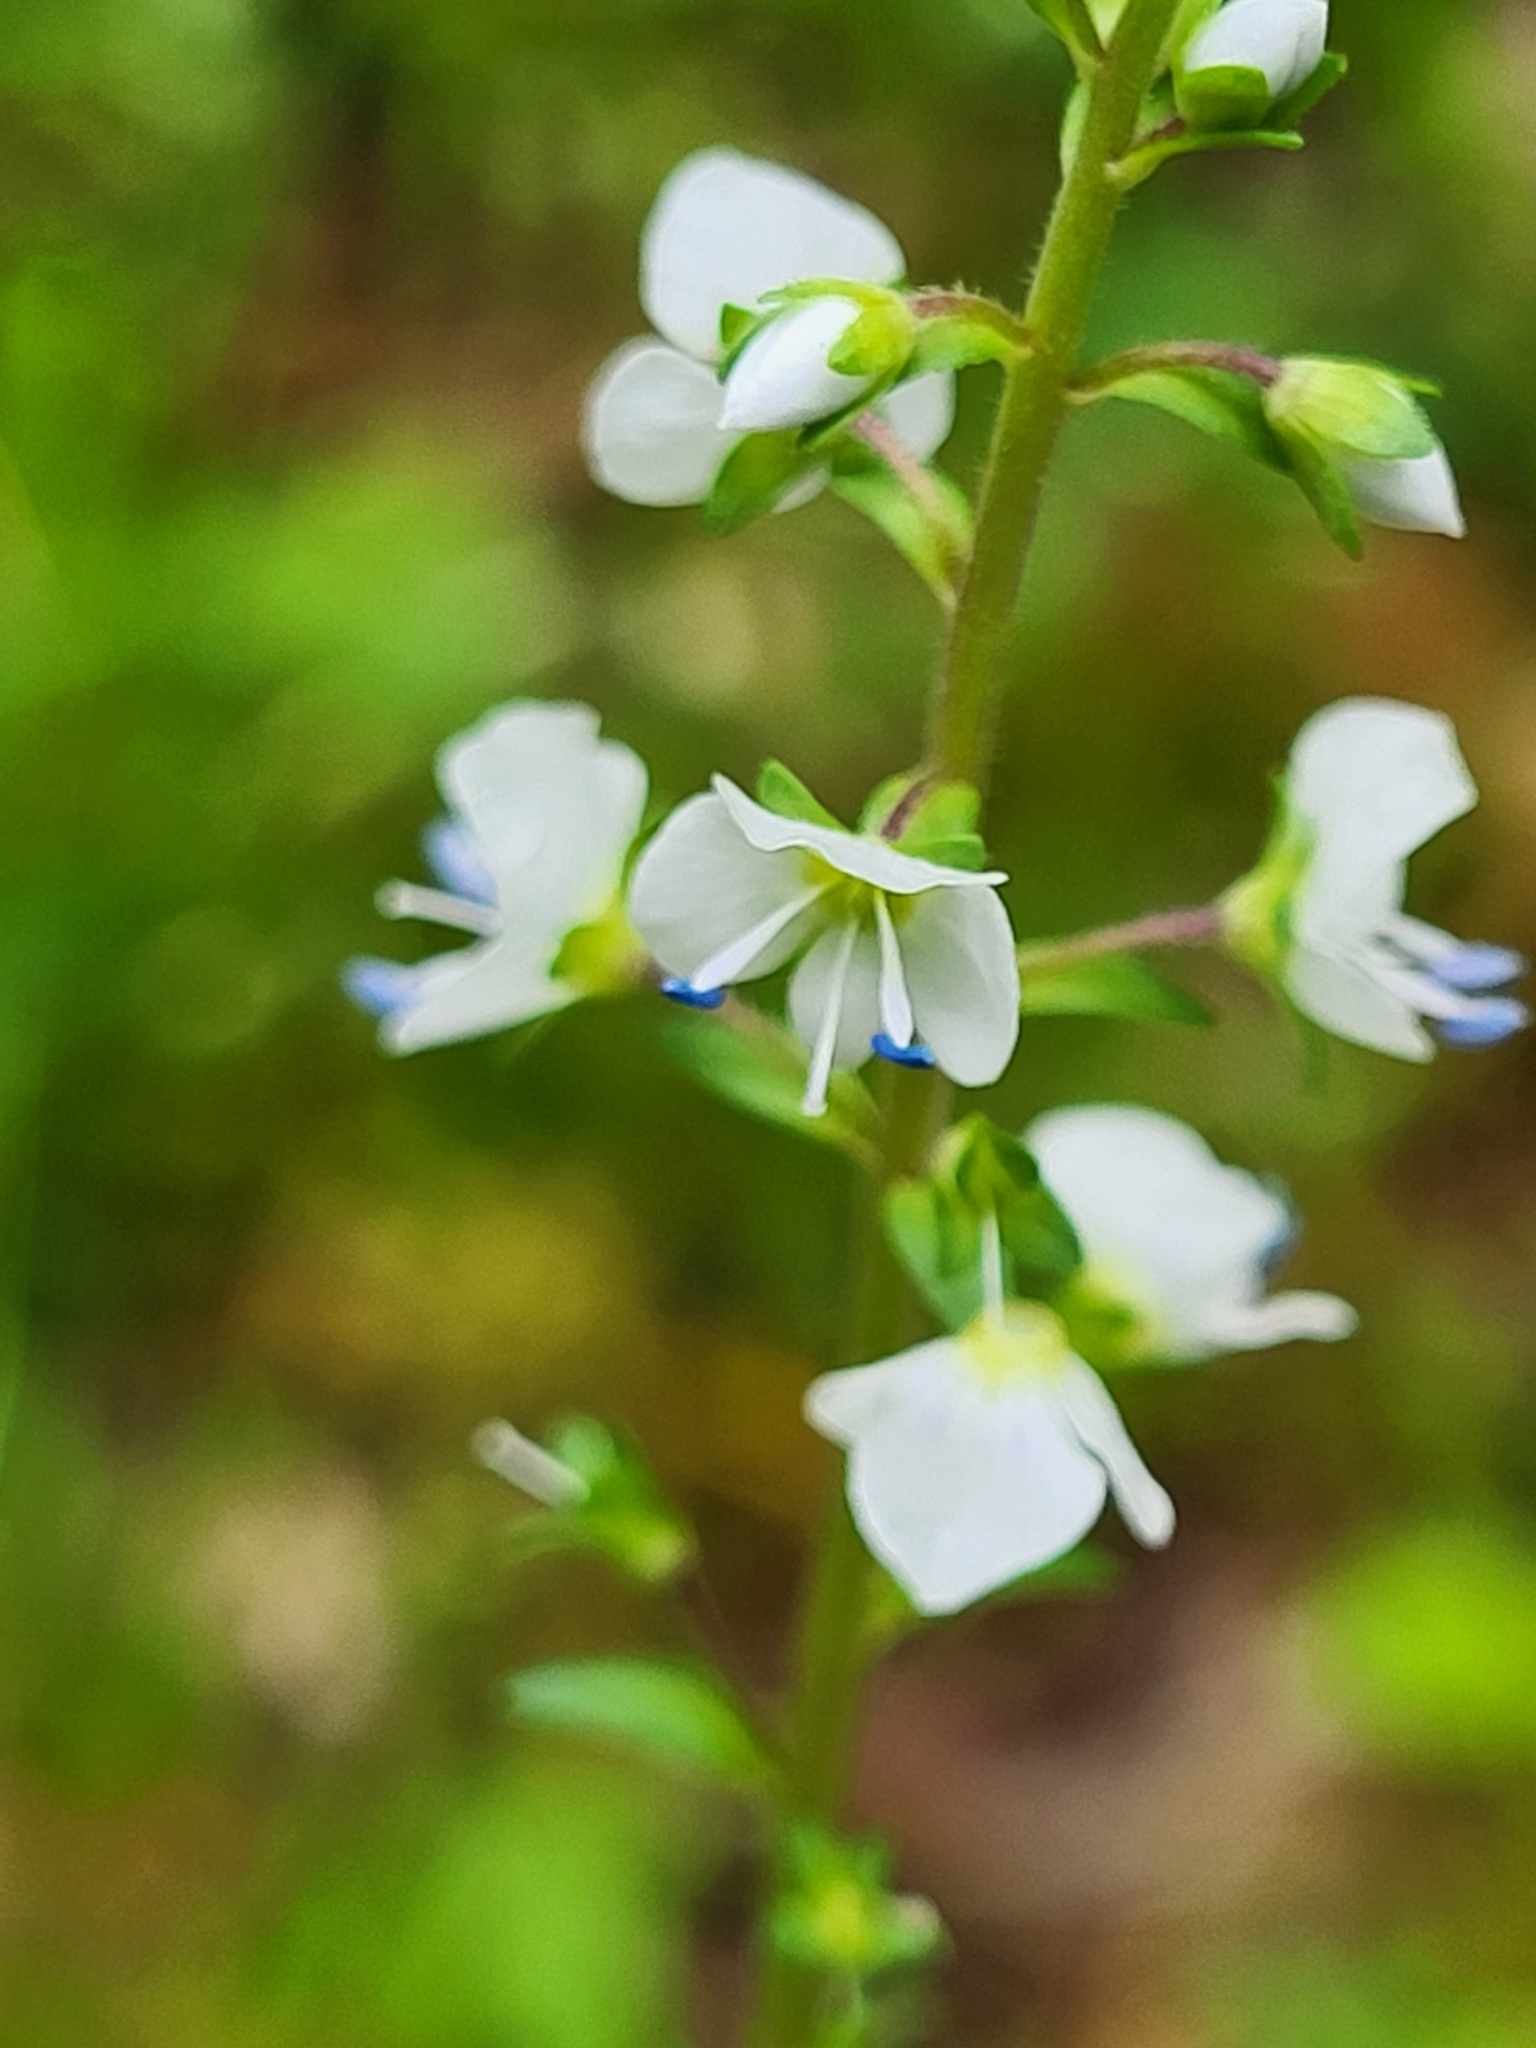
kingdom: Plantae
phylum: Tracheophyta
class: Magnoliopsida
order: Lamiales
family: Plantaginaceae
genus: Veronica
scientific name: Veronica serpyllifolia
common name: Thyme-leaved speedwell
